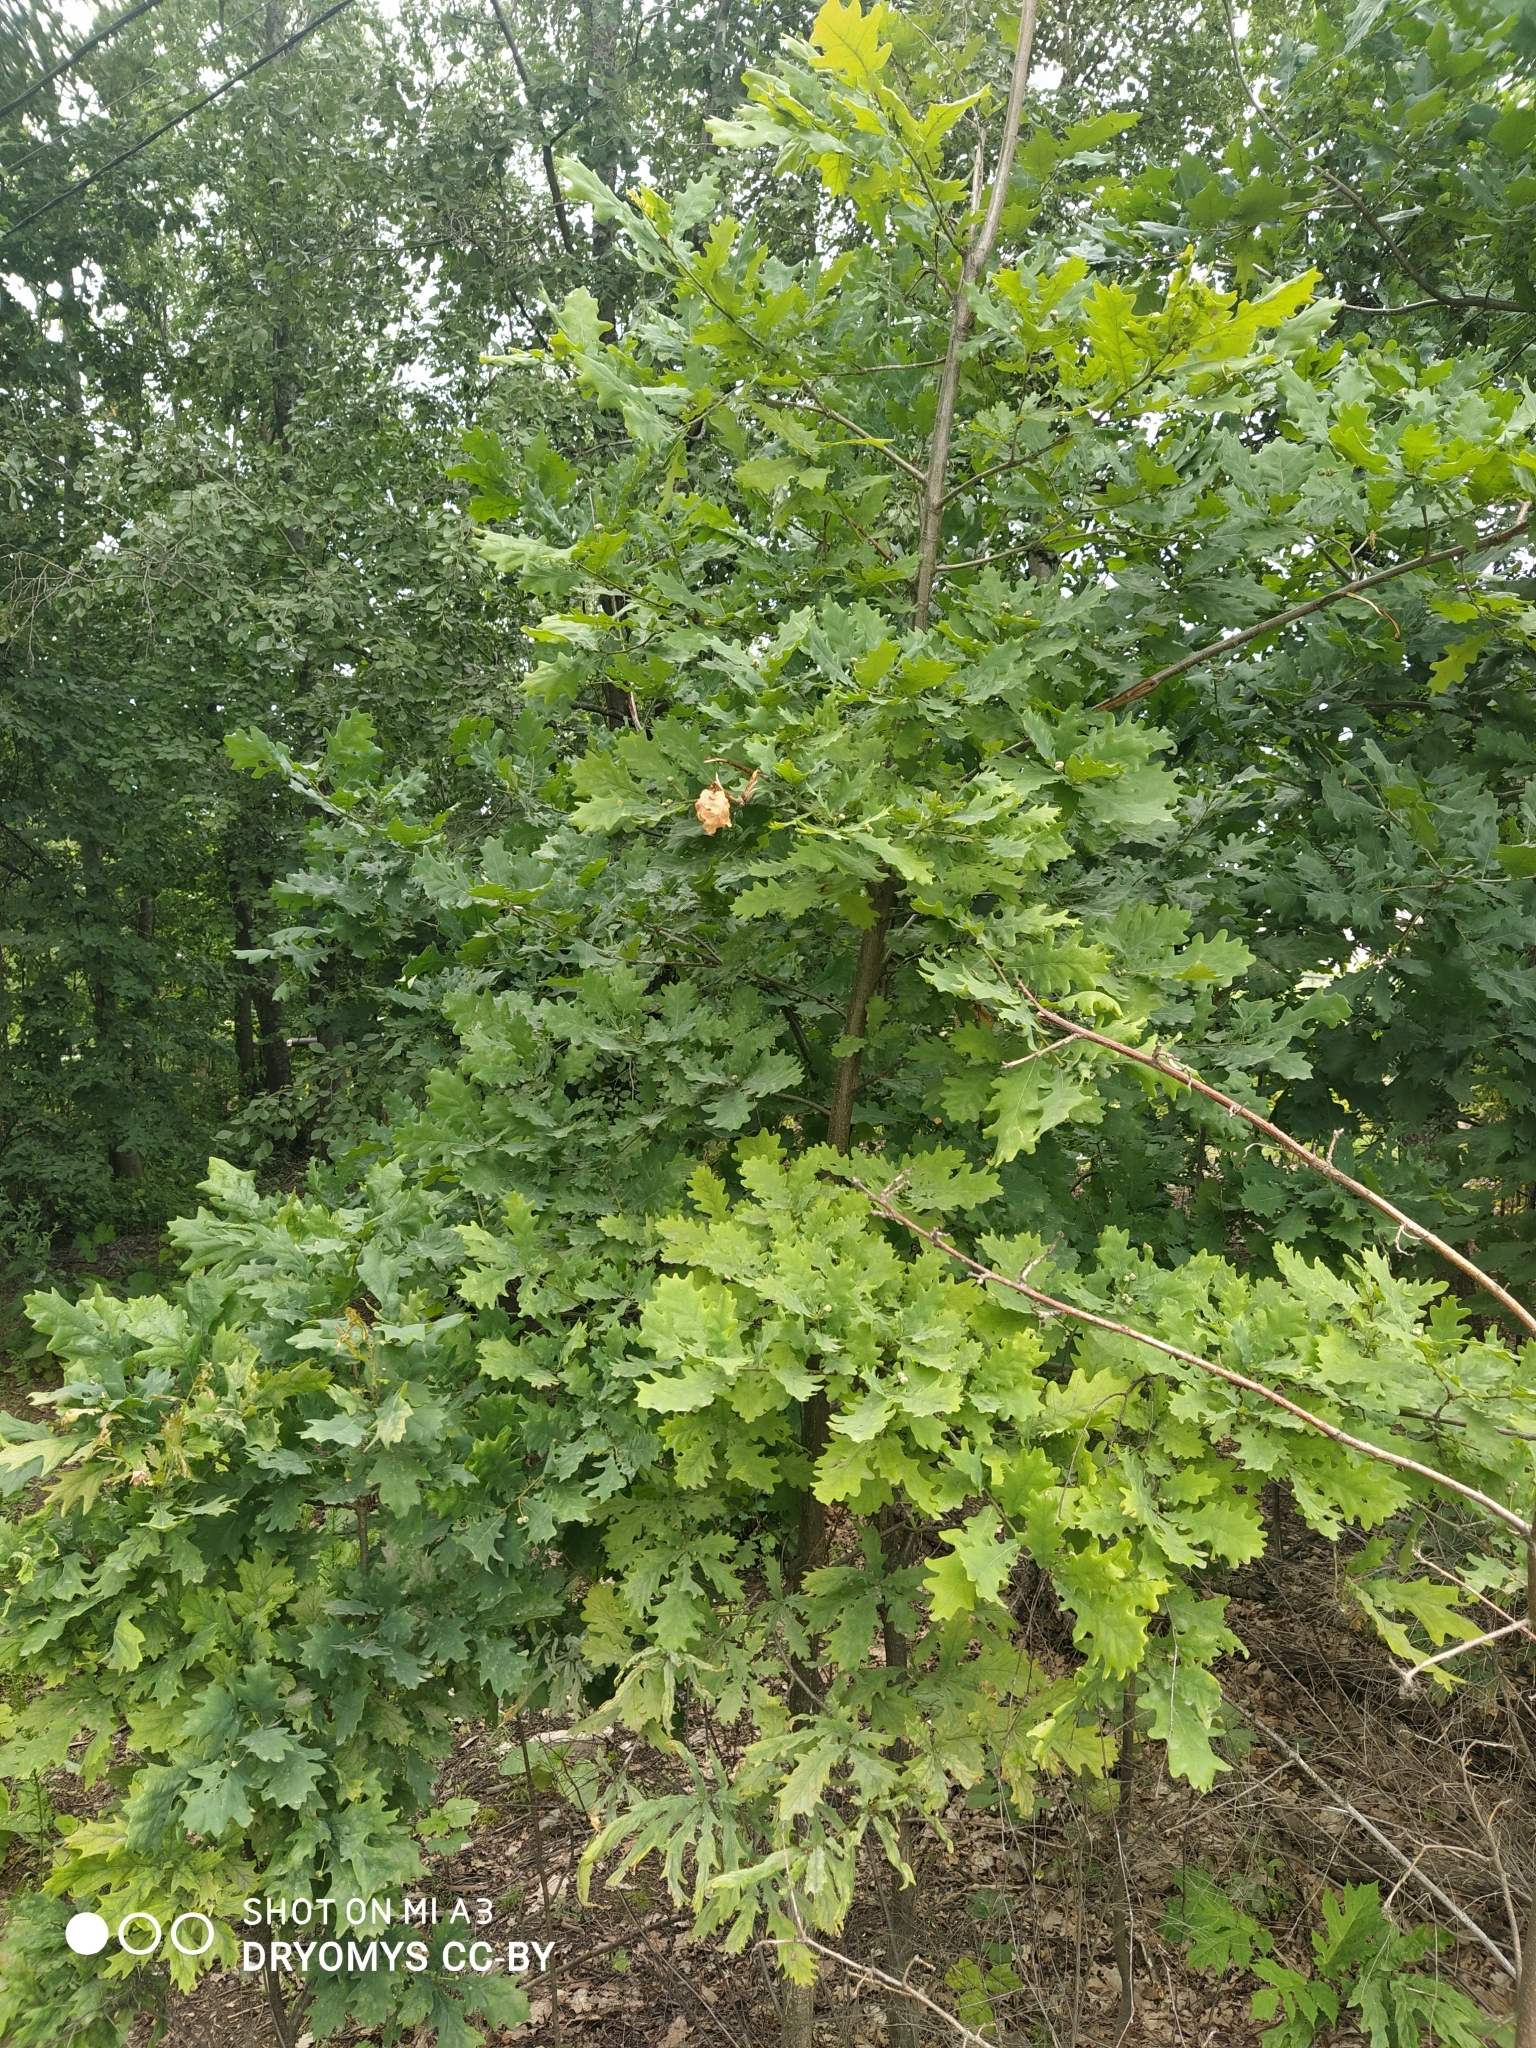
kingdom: Plantae
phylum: Tracheophyta
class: Magnoliopsida
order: Fagales
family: Fagaceae
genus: Quercus
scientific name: Quercus robur
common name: Pedunculate oak
